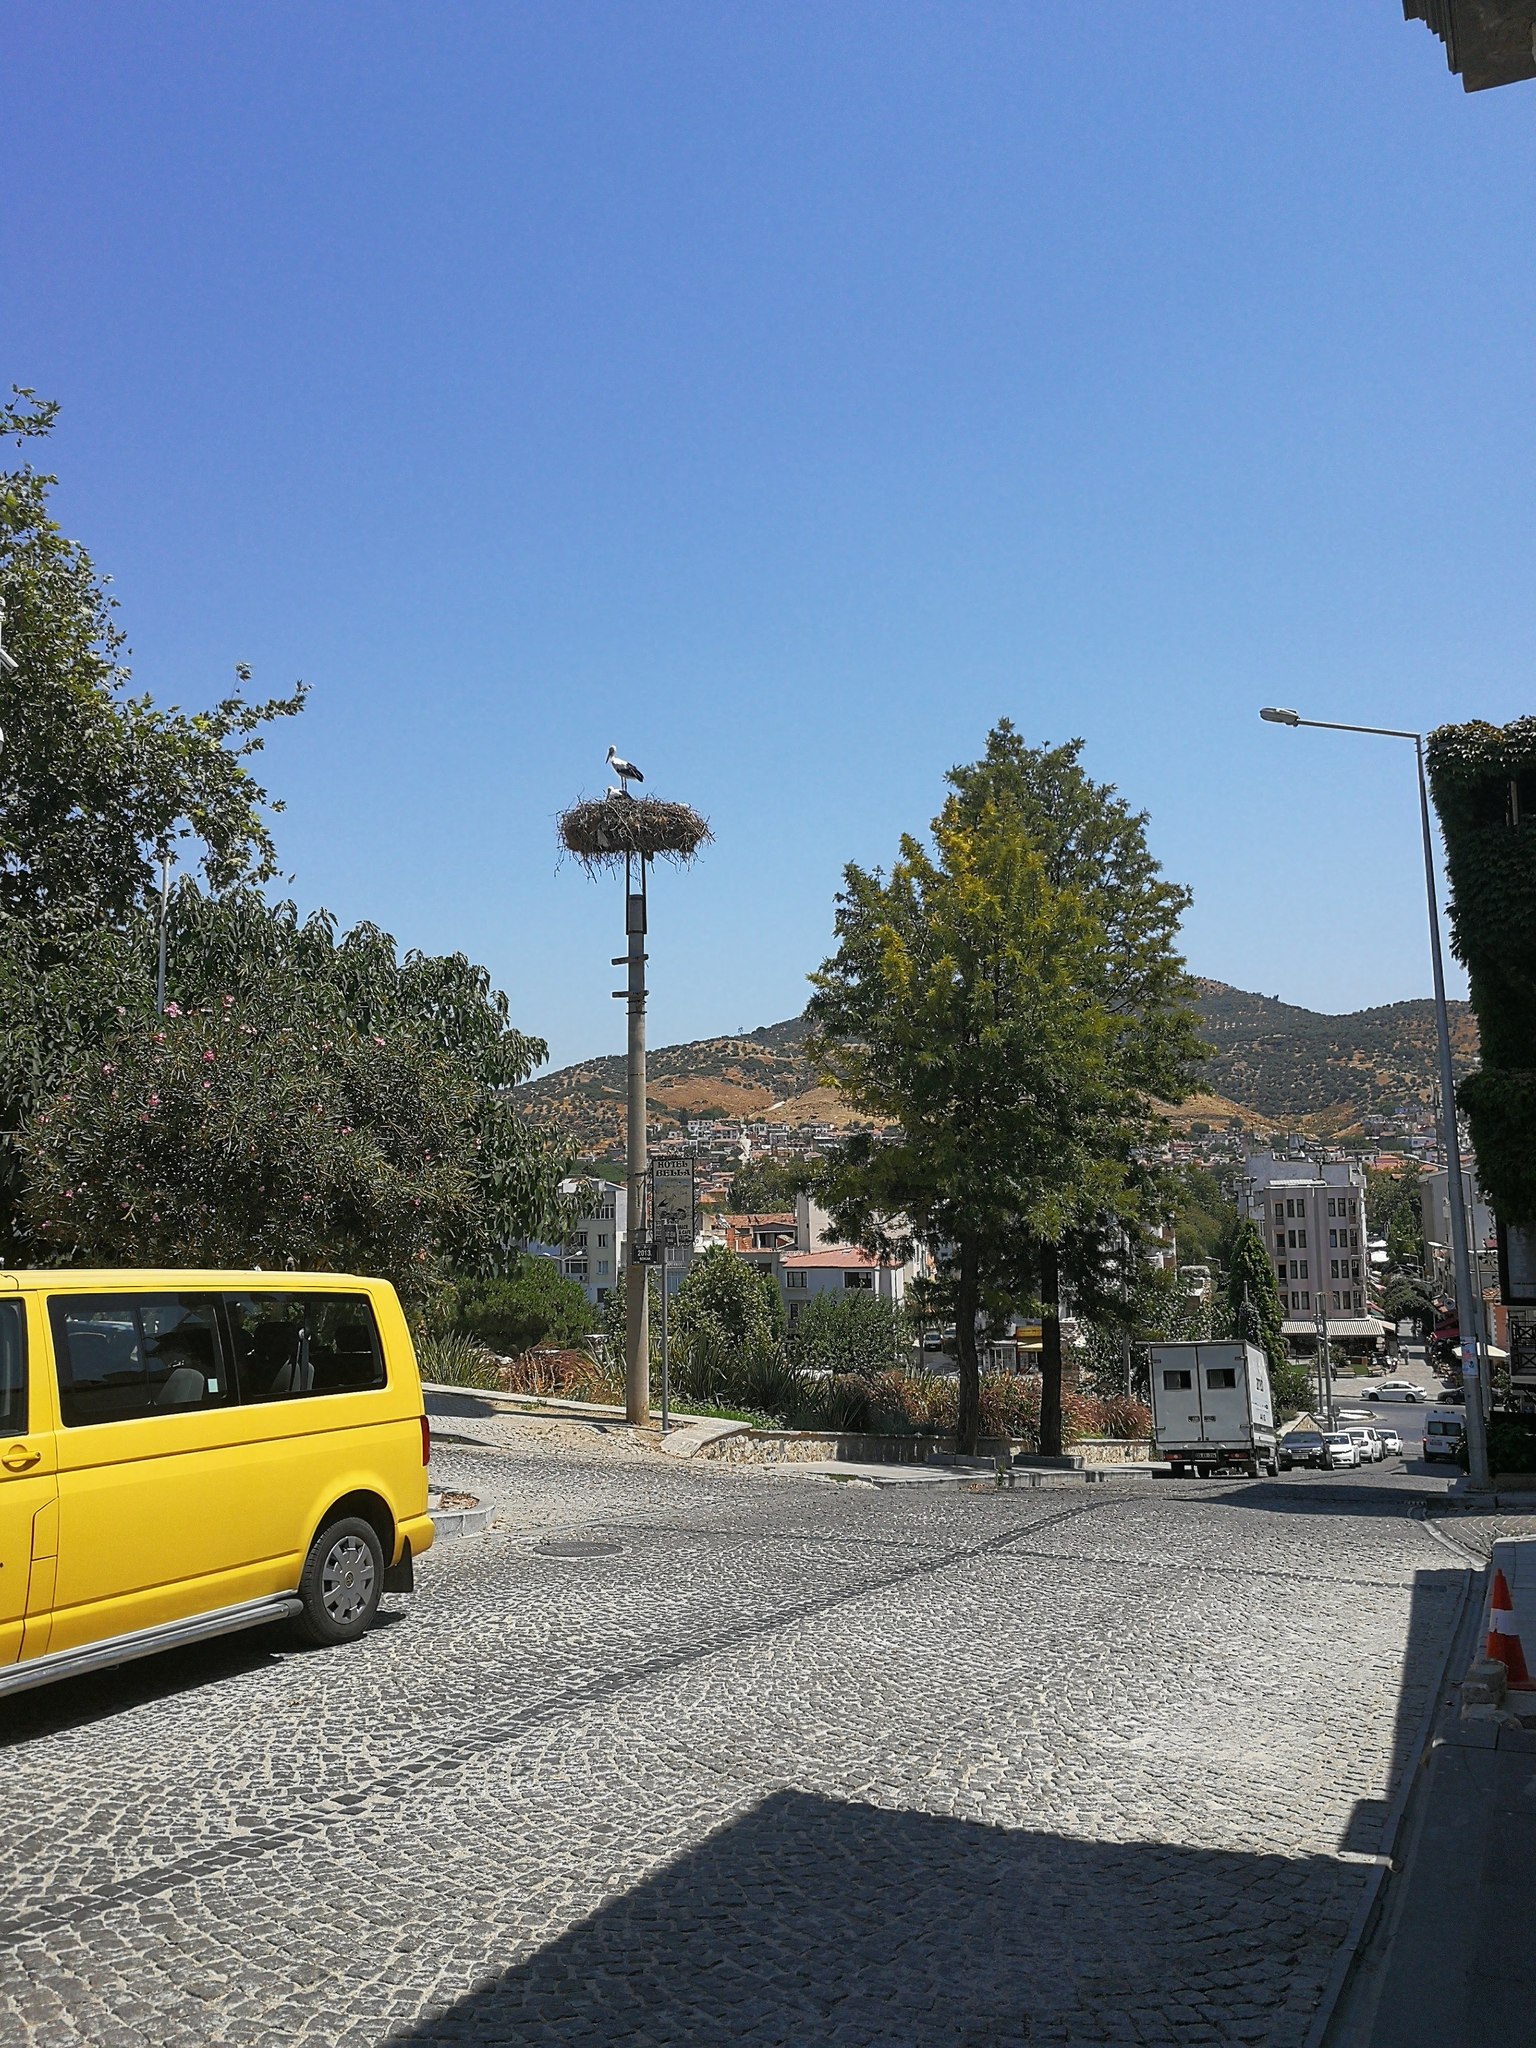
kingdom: Animalia
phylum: Chordata
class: Aves
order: Ciconiiformes
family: Ciconiidae
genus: Ciconia
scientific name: Ciconia ciconia
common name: White stork
